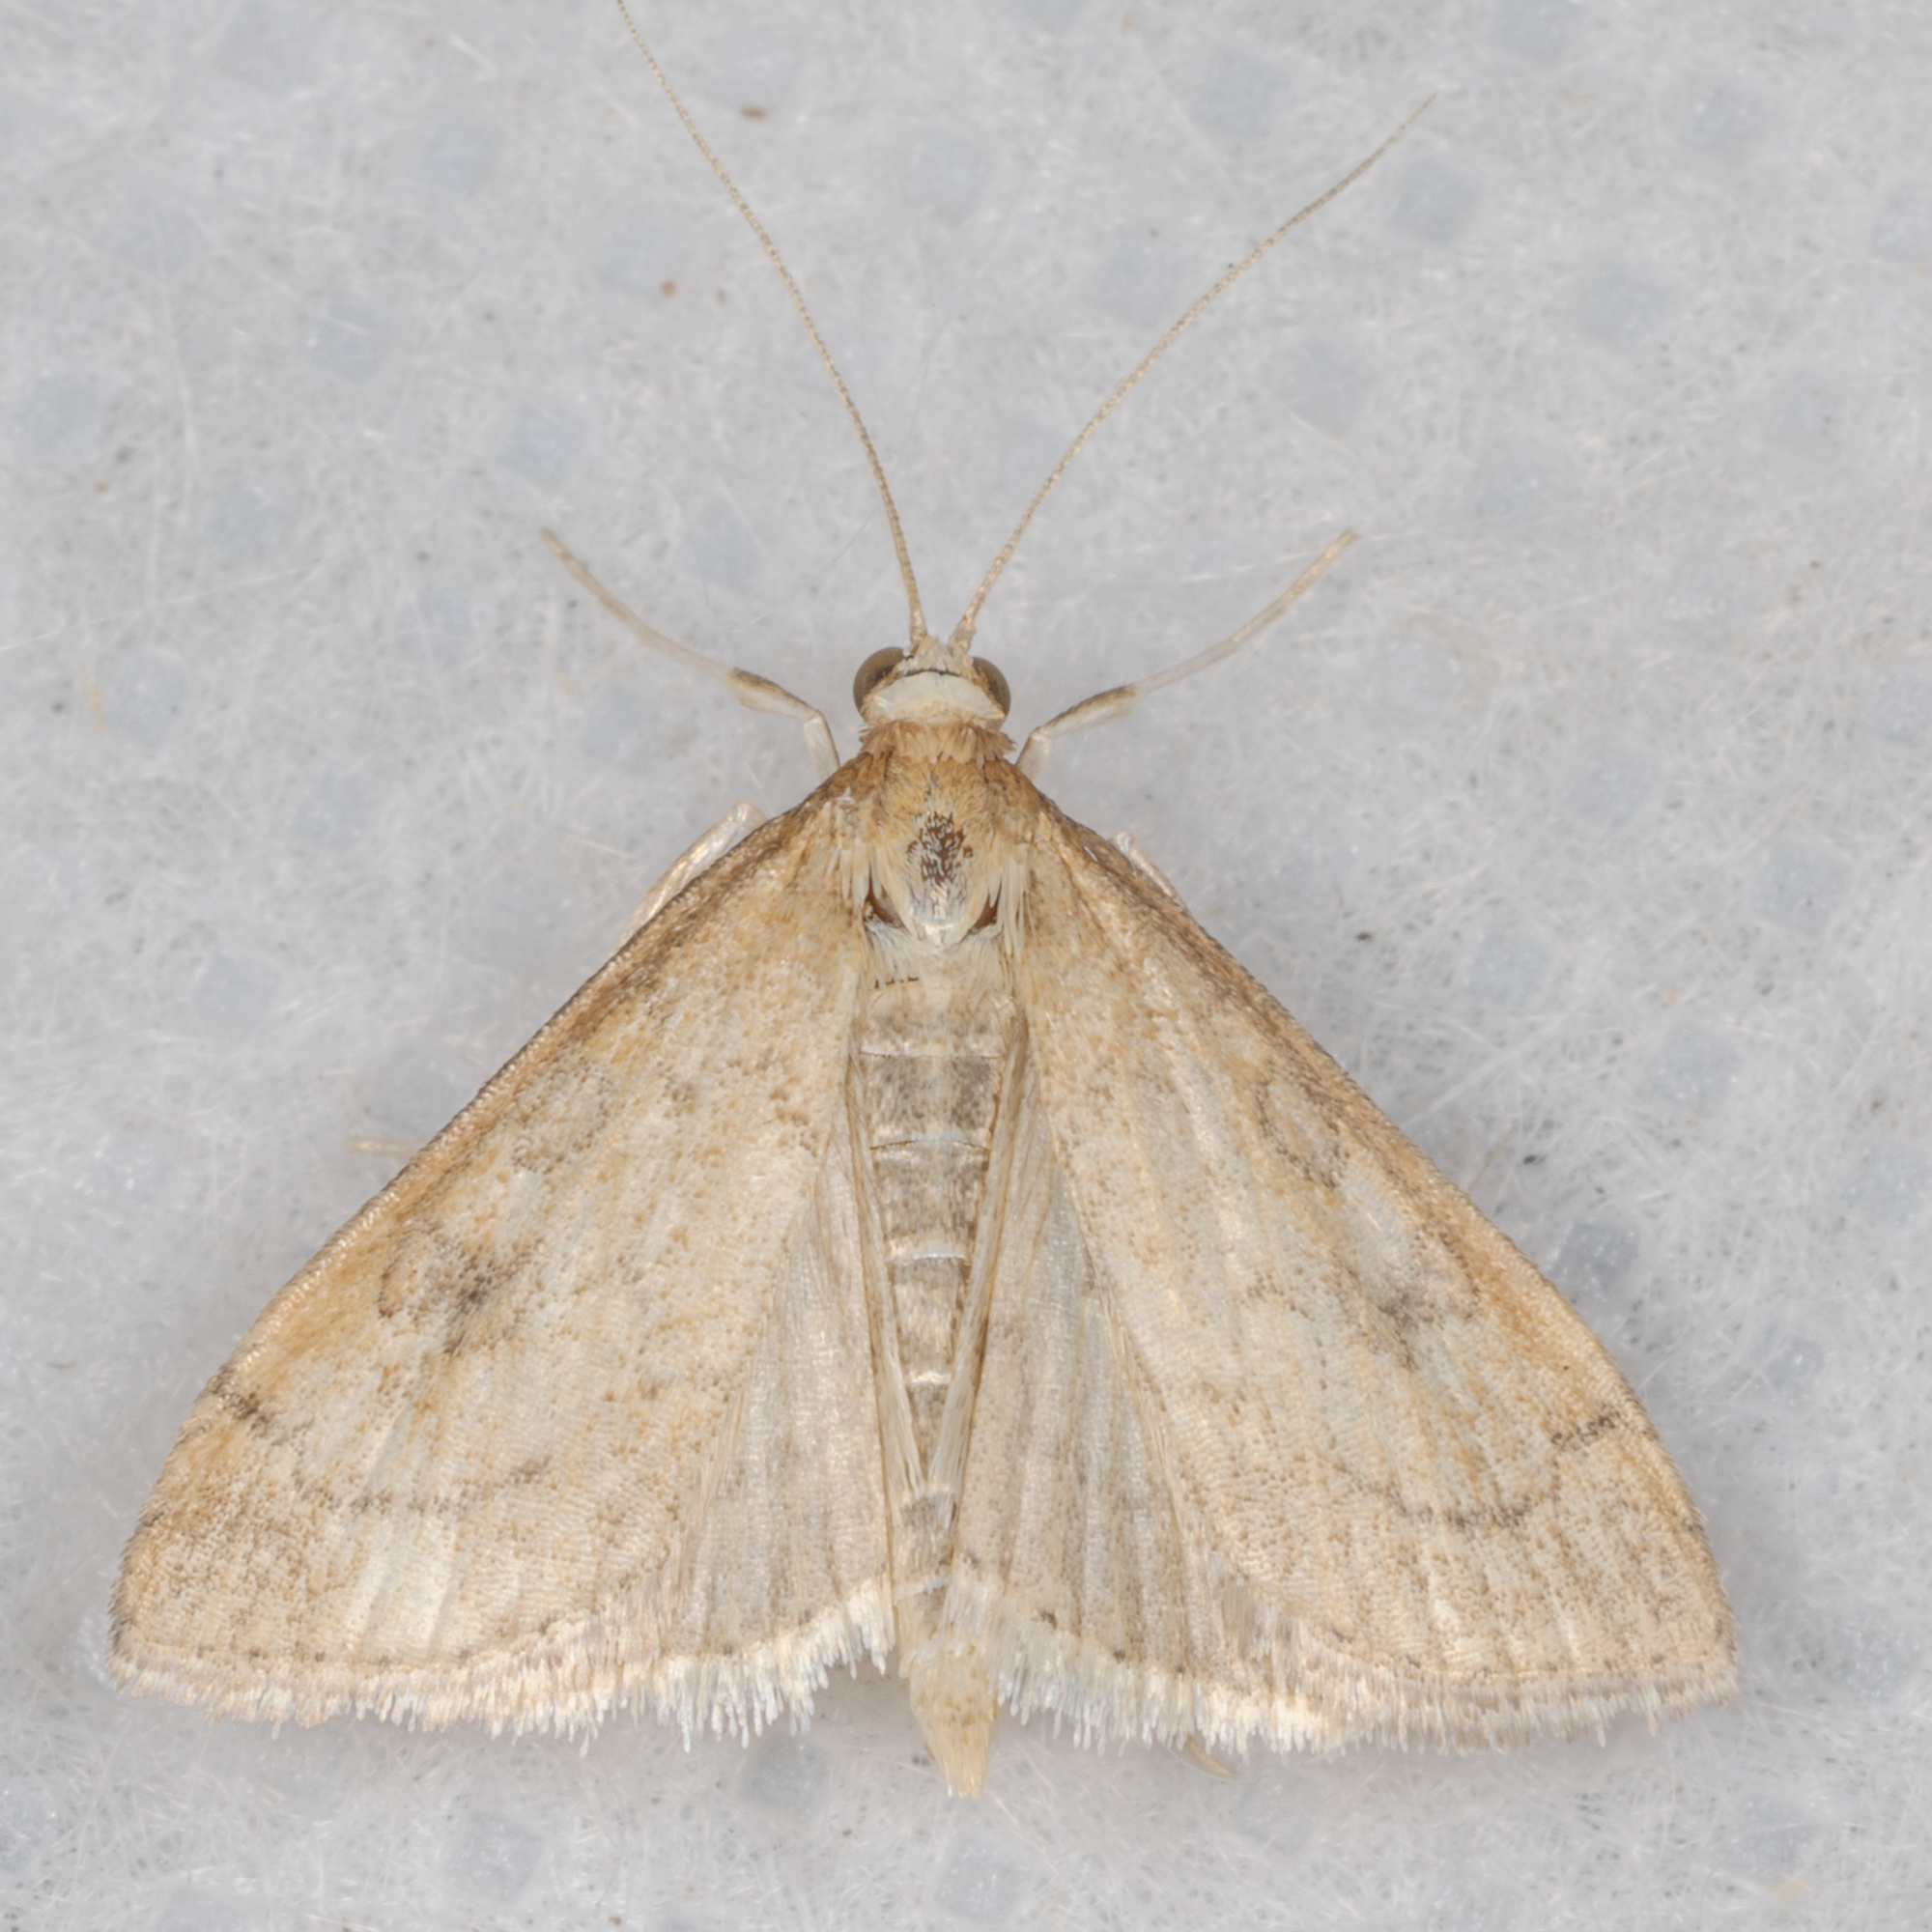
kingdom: Animalia
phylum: Arthropoda
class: Insecta
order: Lepidoptera
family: Crambidae
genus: Udea
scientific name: Udea rubigalis
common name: Celery leaftier moth
